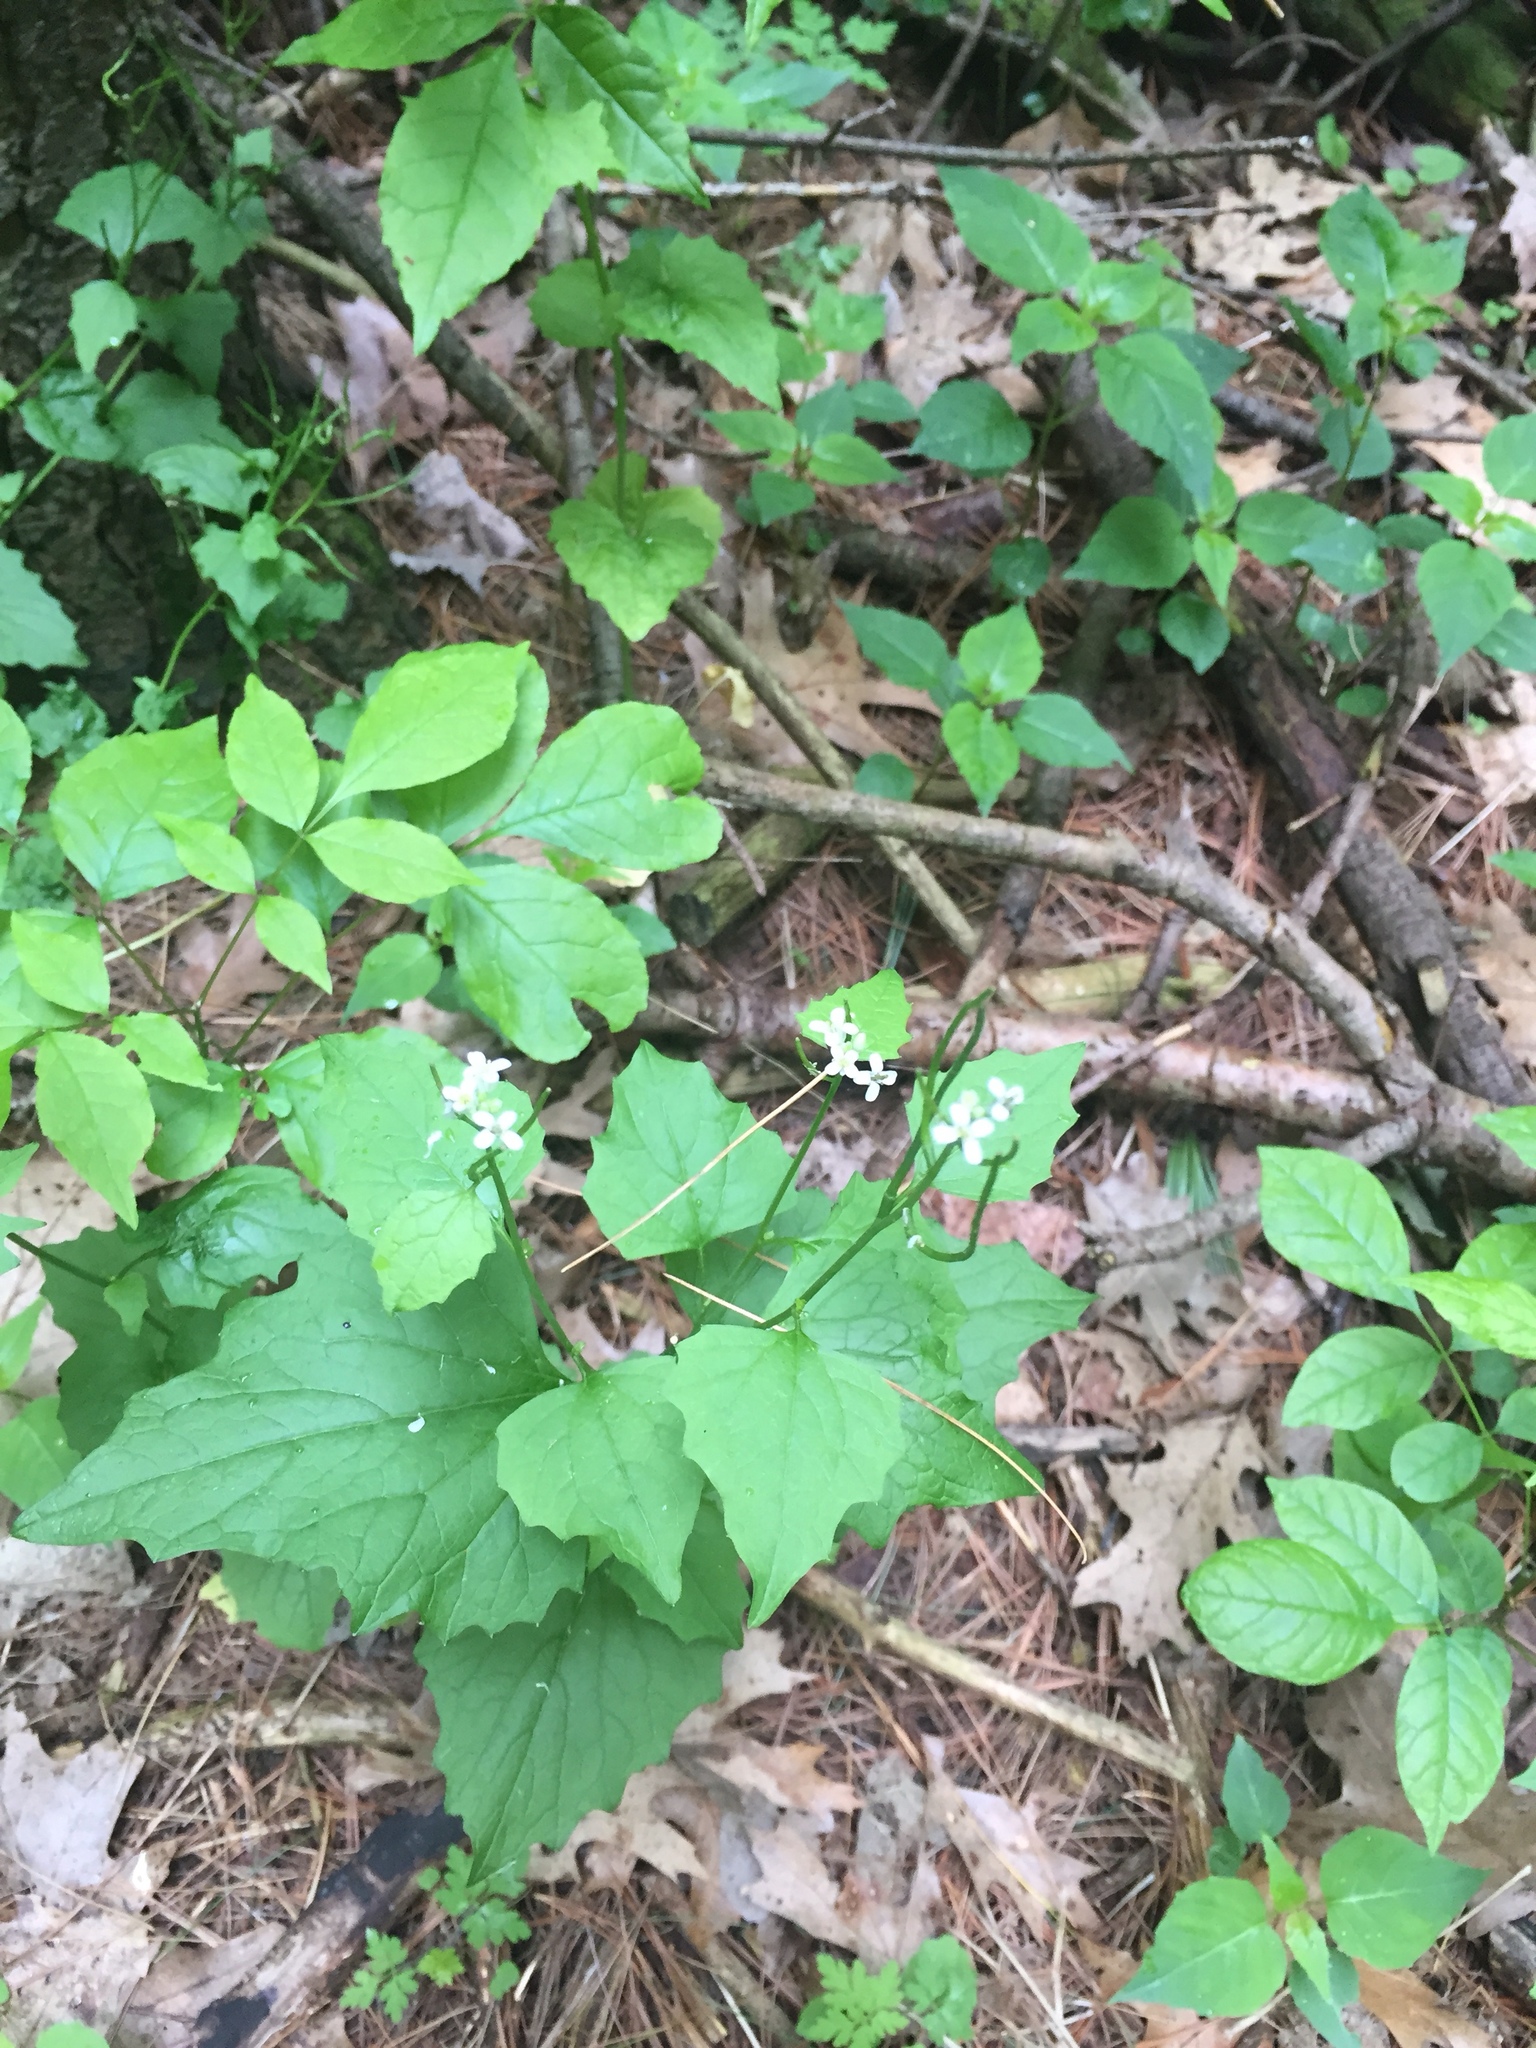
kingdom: Plantae
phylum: Tracheophyta
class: Magnoliopsida
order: Brassicales
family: Brassicaceae
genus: Alliaria
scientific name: Alliaria petiolata
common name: Garlic mustard
